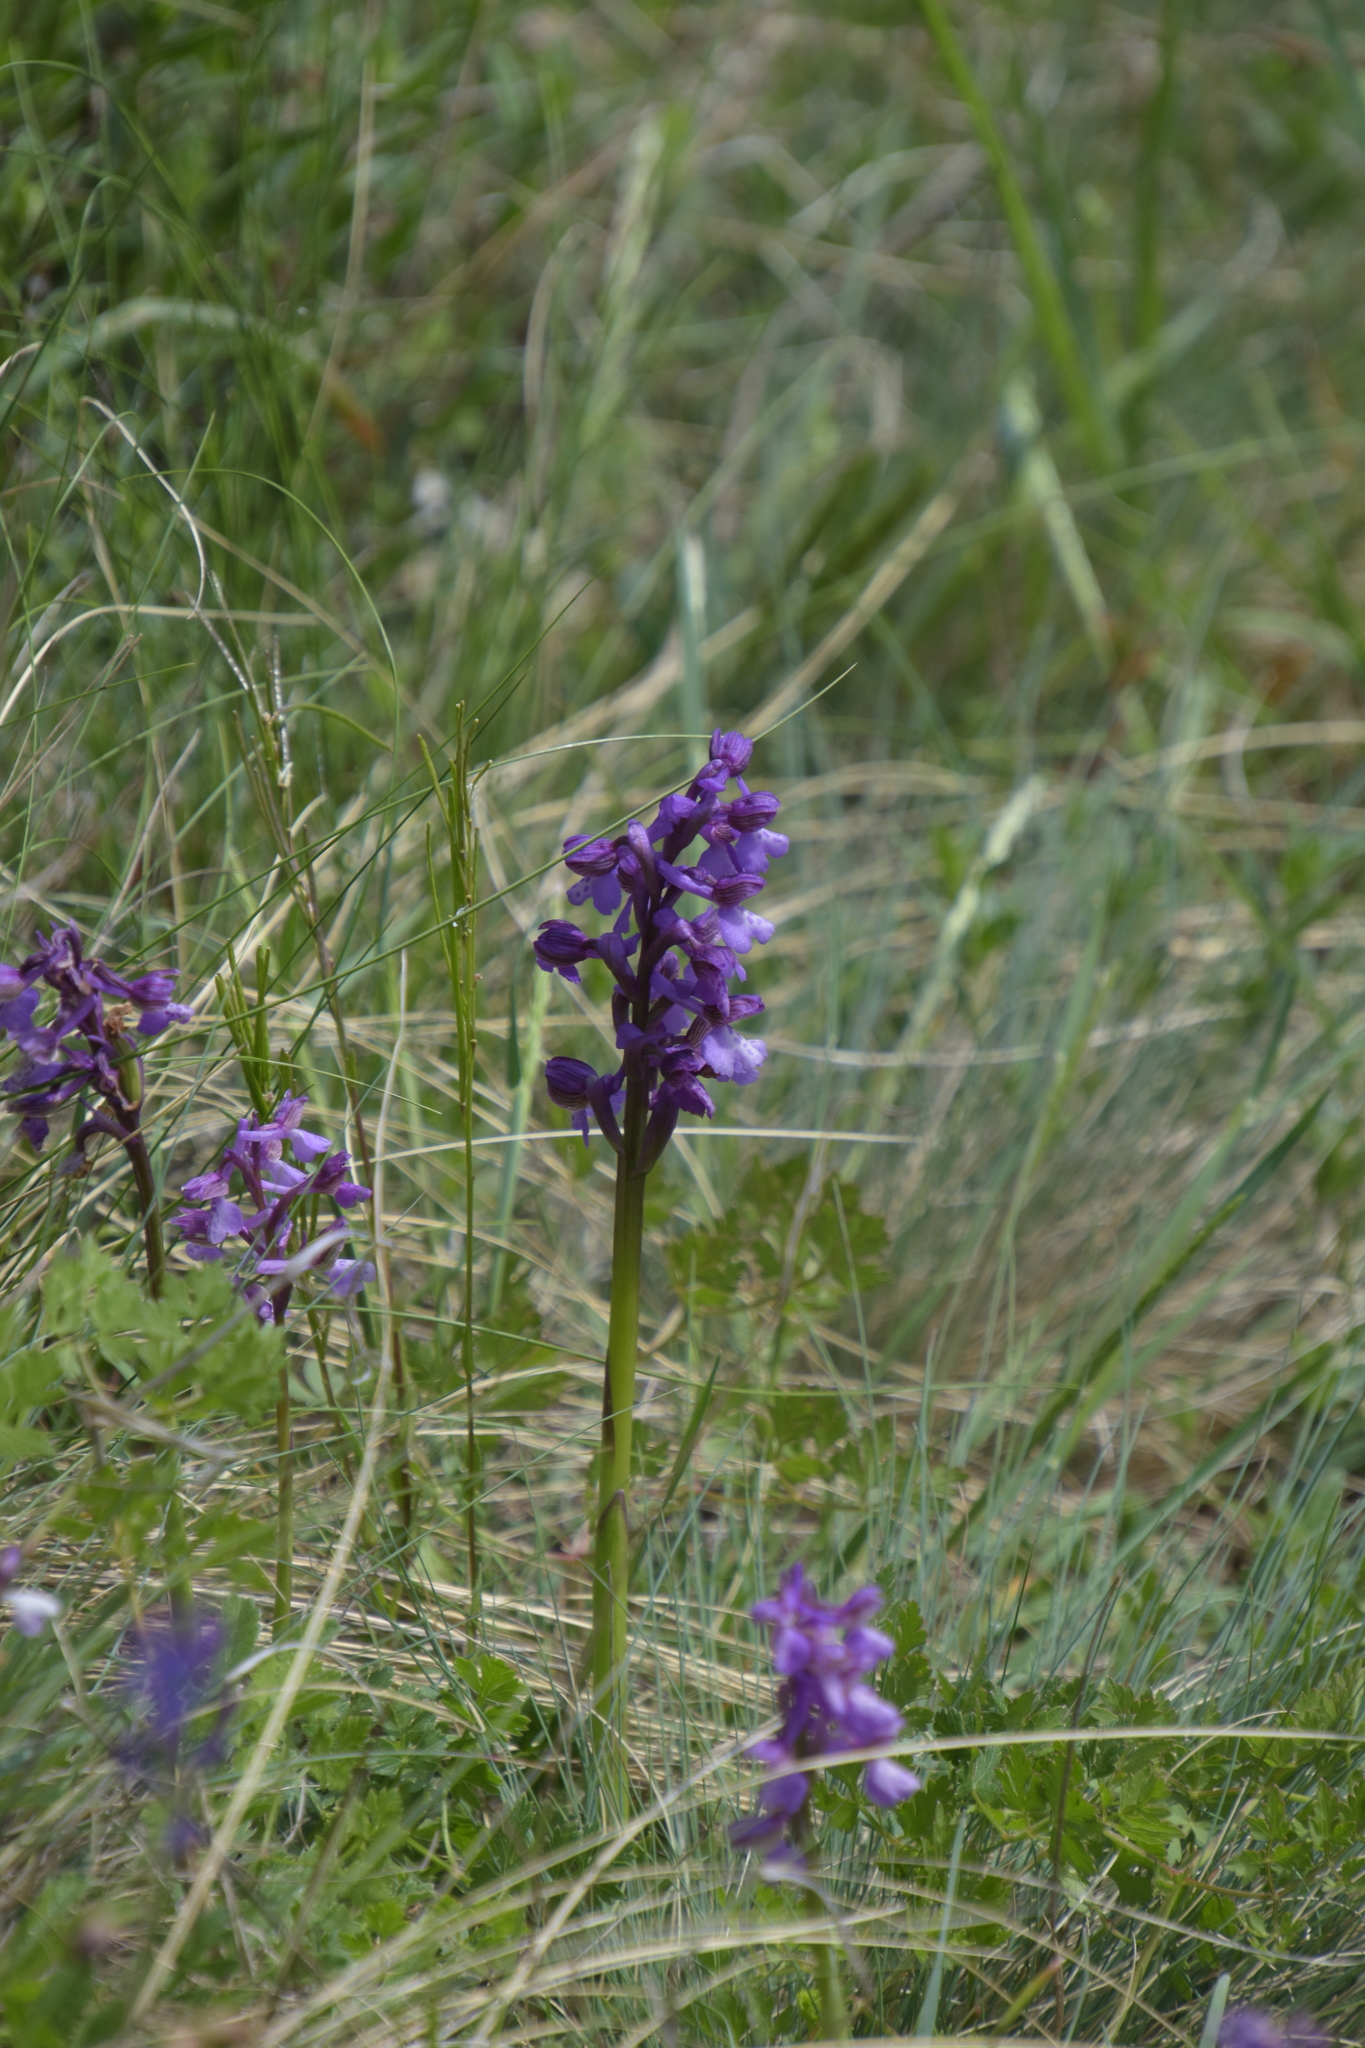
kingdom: Plantae
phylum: Tracheophyta
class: Liliopsida
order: Asparagales
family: Orchidaceae
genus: Anacamptis
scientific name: Anacamptis morio
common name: Green-winged orchid
